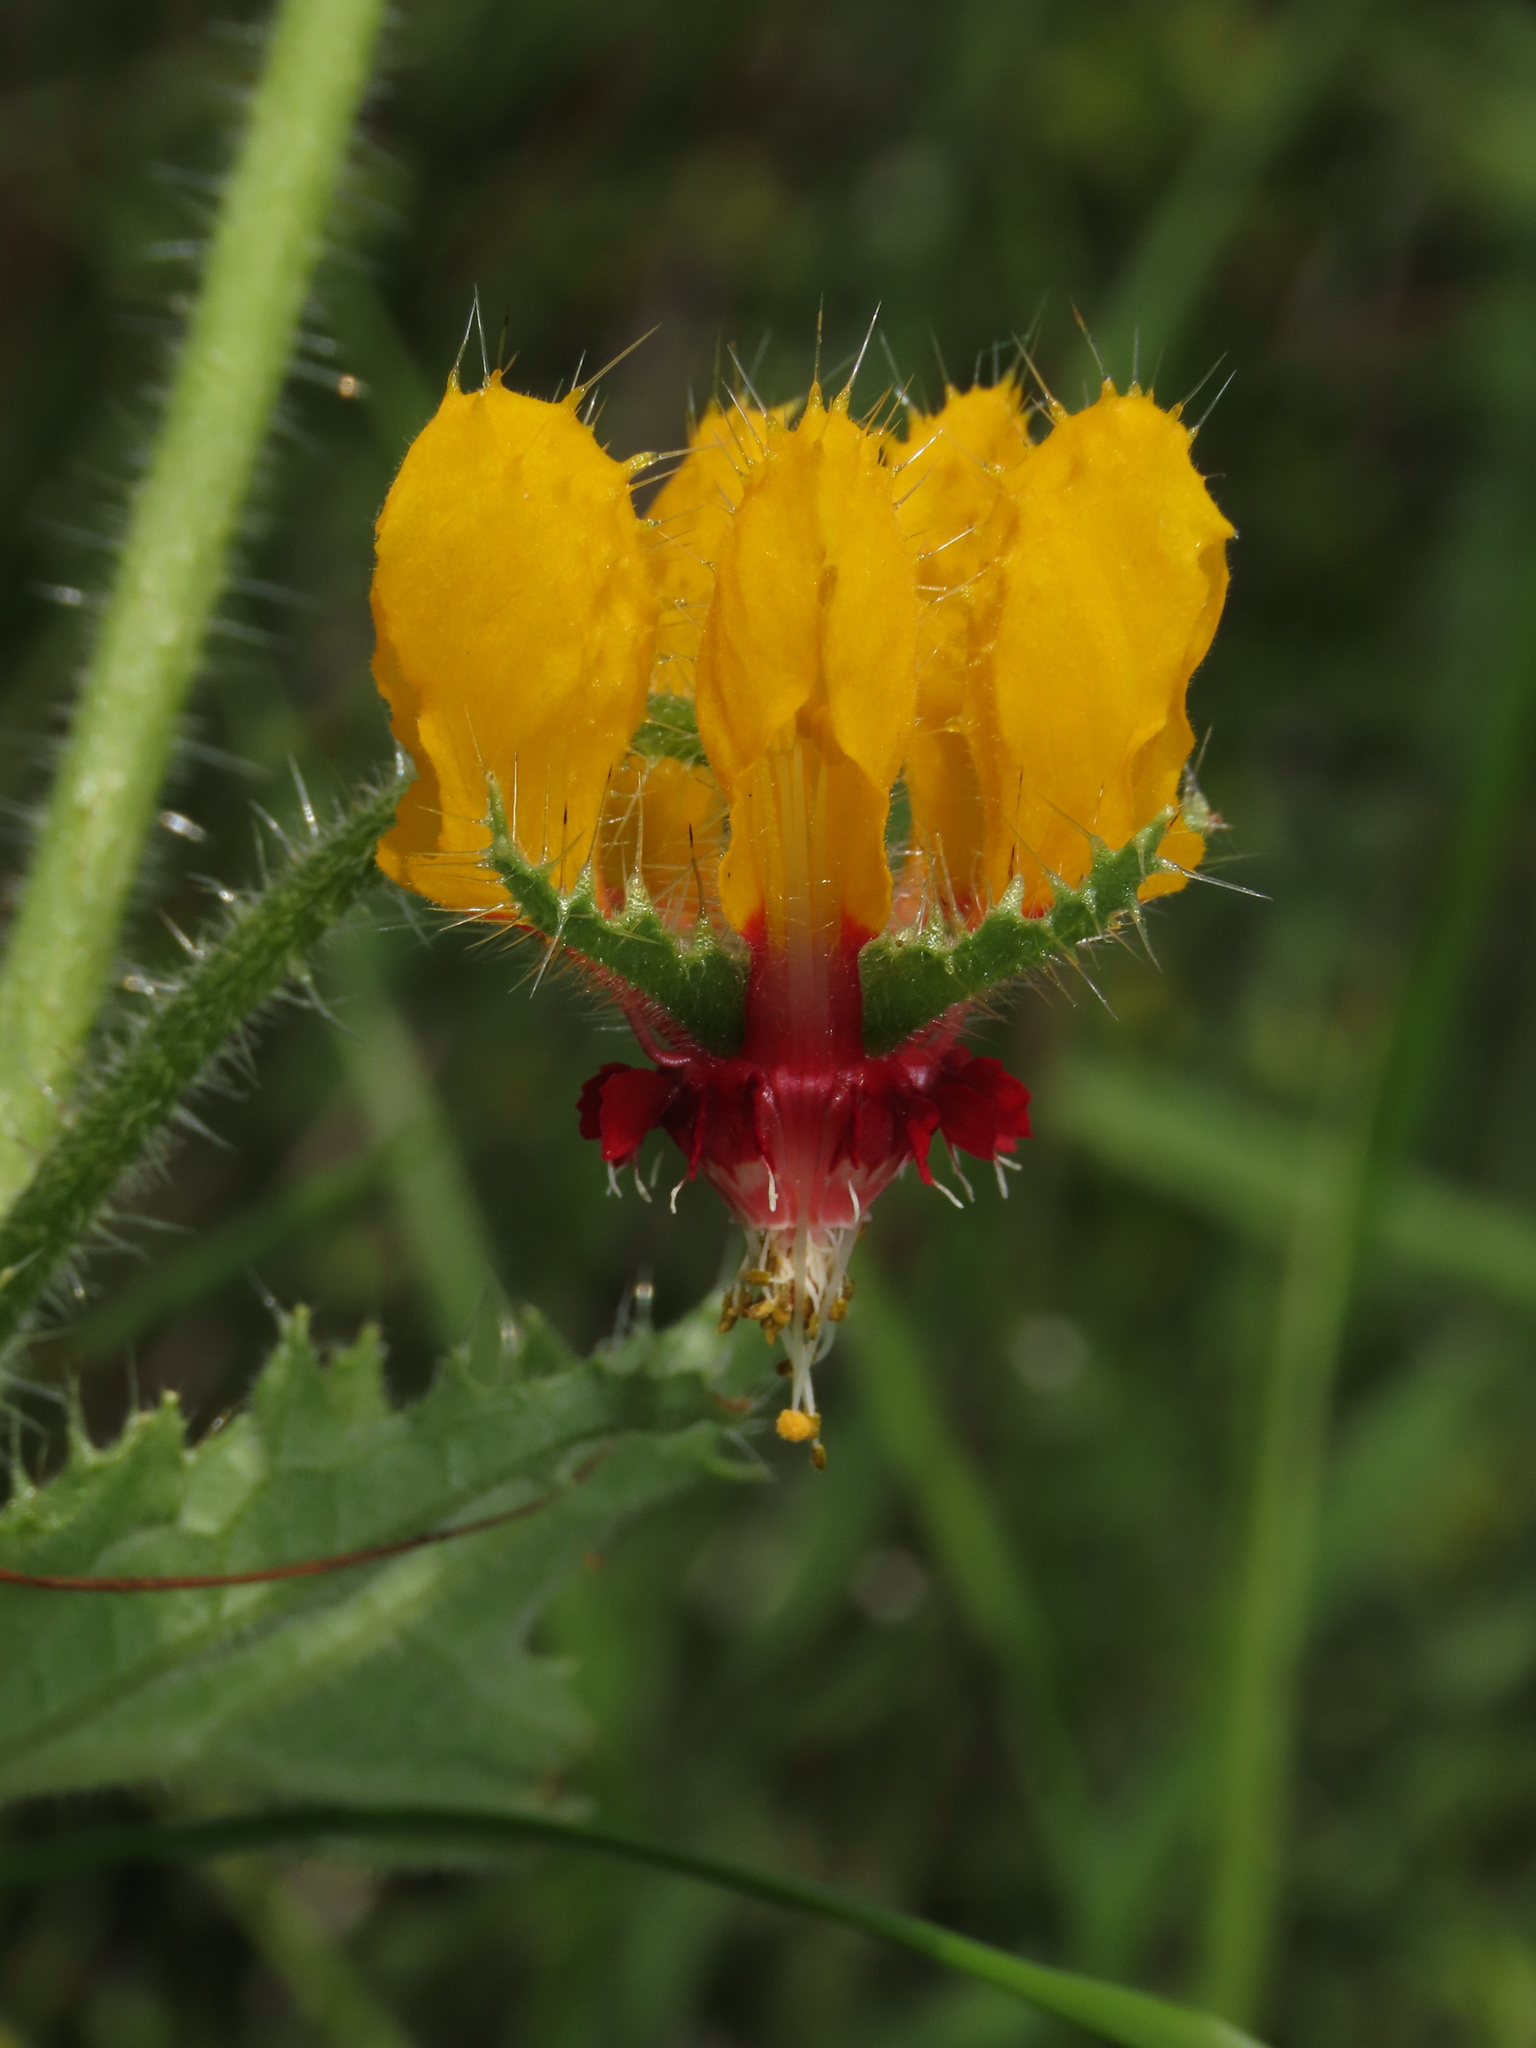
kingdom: Plantae
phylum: Tracheophyta
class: Magnoliopsida
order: Cornales
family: Loasaceae
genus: Loasa
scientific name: Loasa tricolor
